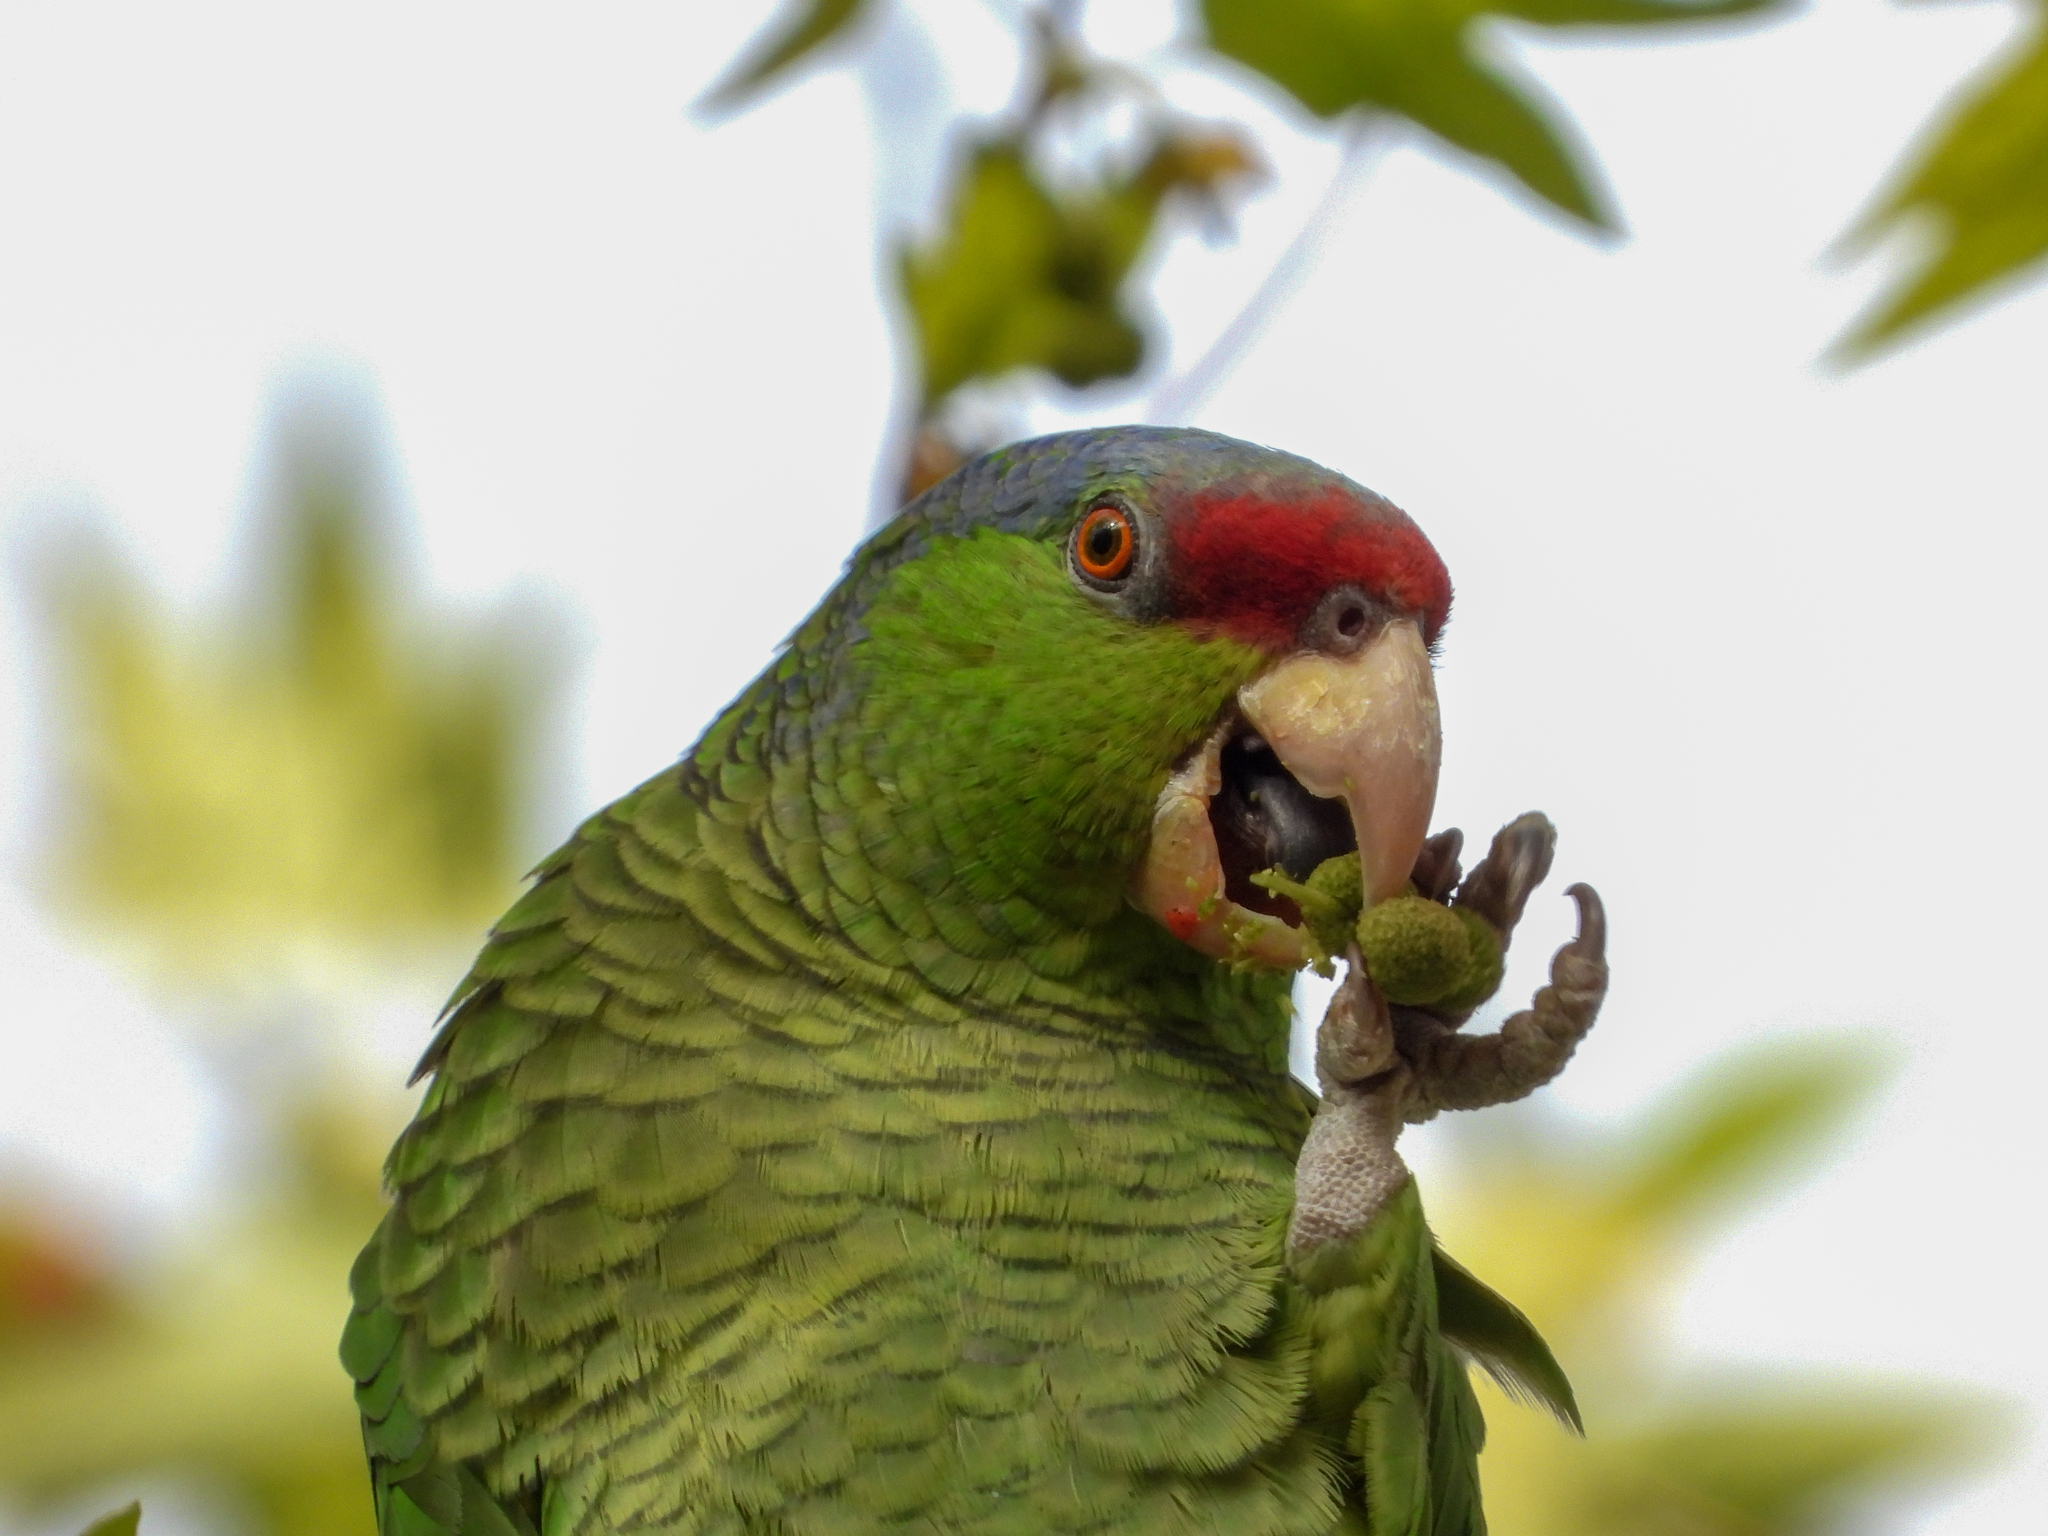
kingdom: Animalia
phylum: Chordata
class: Aves
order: Psittaciformes
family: Psittacidae
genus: Amazona
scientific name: Amazona finschi
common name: Lilac-crowned amazon
